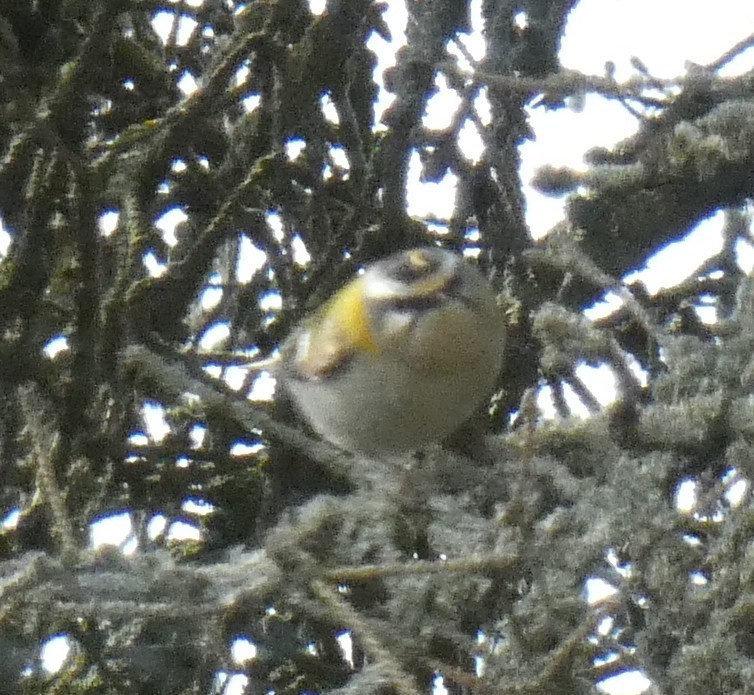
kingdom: Animalia
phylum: Chordata
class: Aves
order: Passeriformes
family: Regulidae
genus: Regulus
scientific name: Regulus ignicapilla
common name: Firecrest
